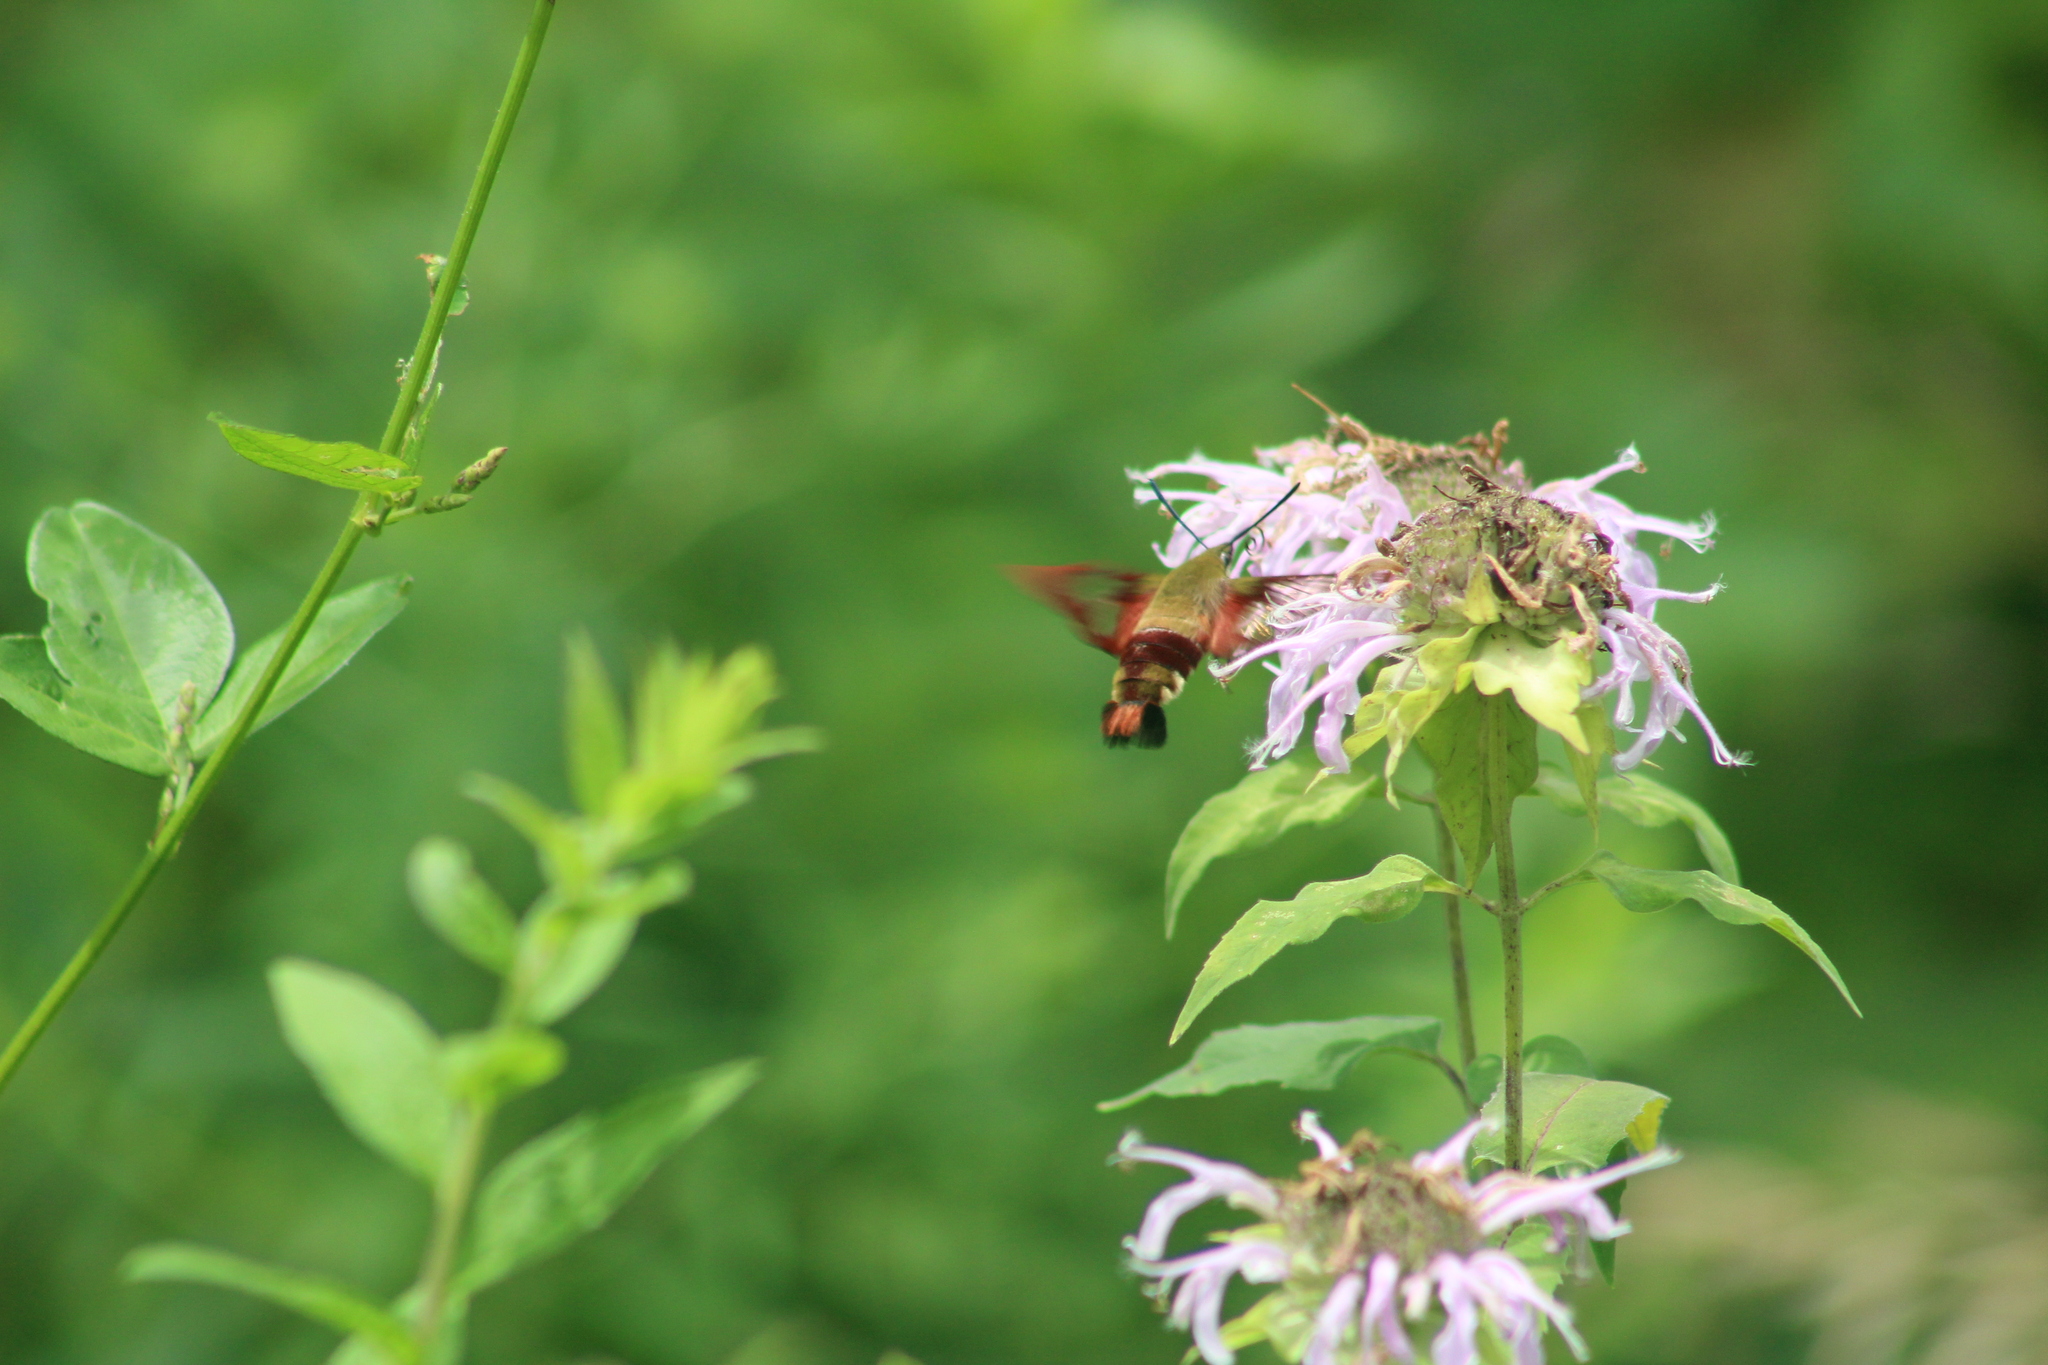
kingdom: Animalia
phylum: Arthropoda
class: Insecta
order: Lepidoptera
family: Sphingidae
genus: Hemaris
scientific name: Hemaris thysbe
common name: Common clear-wing
